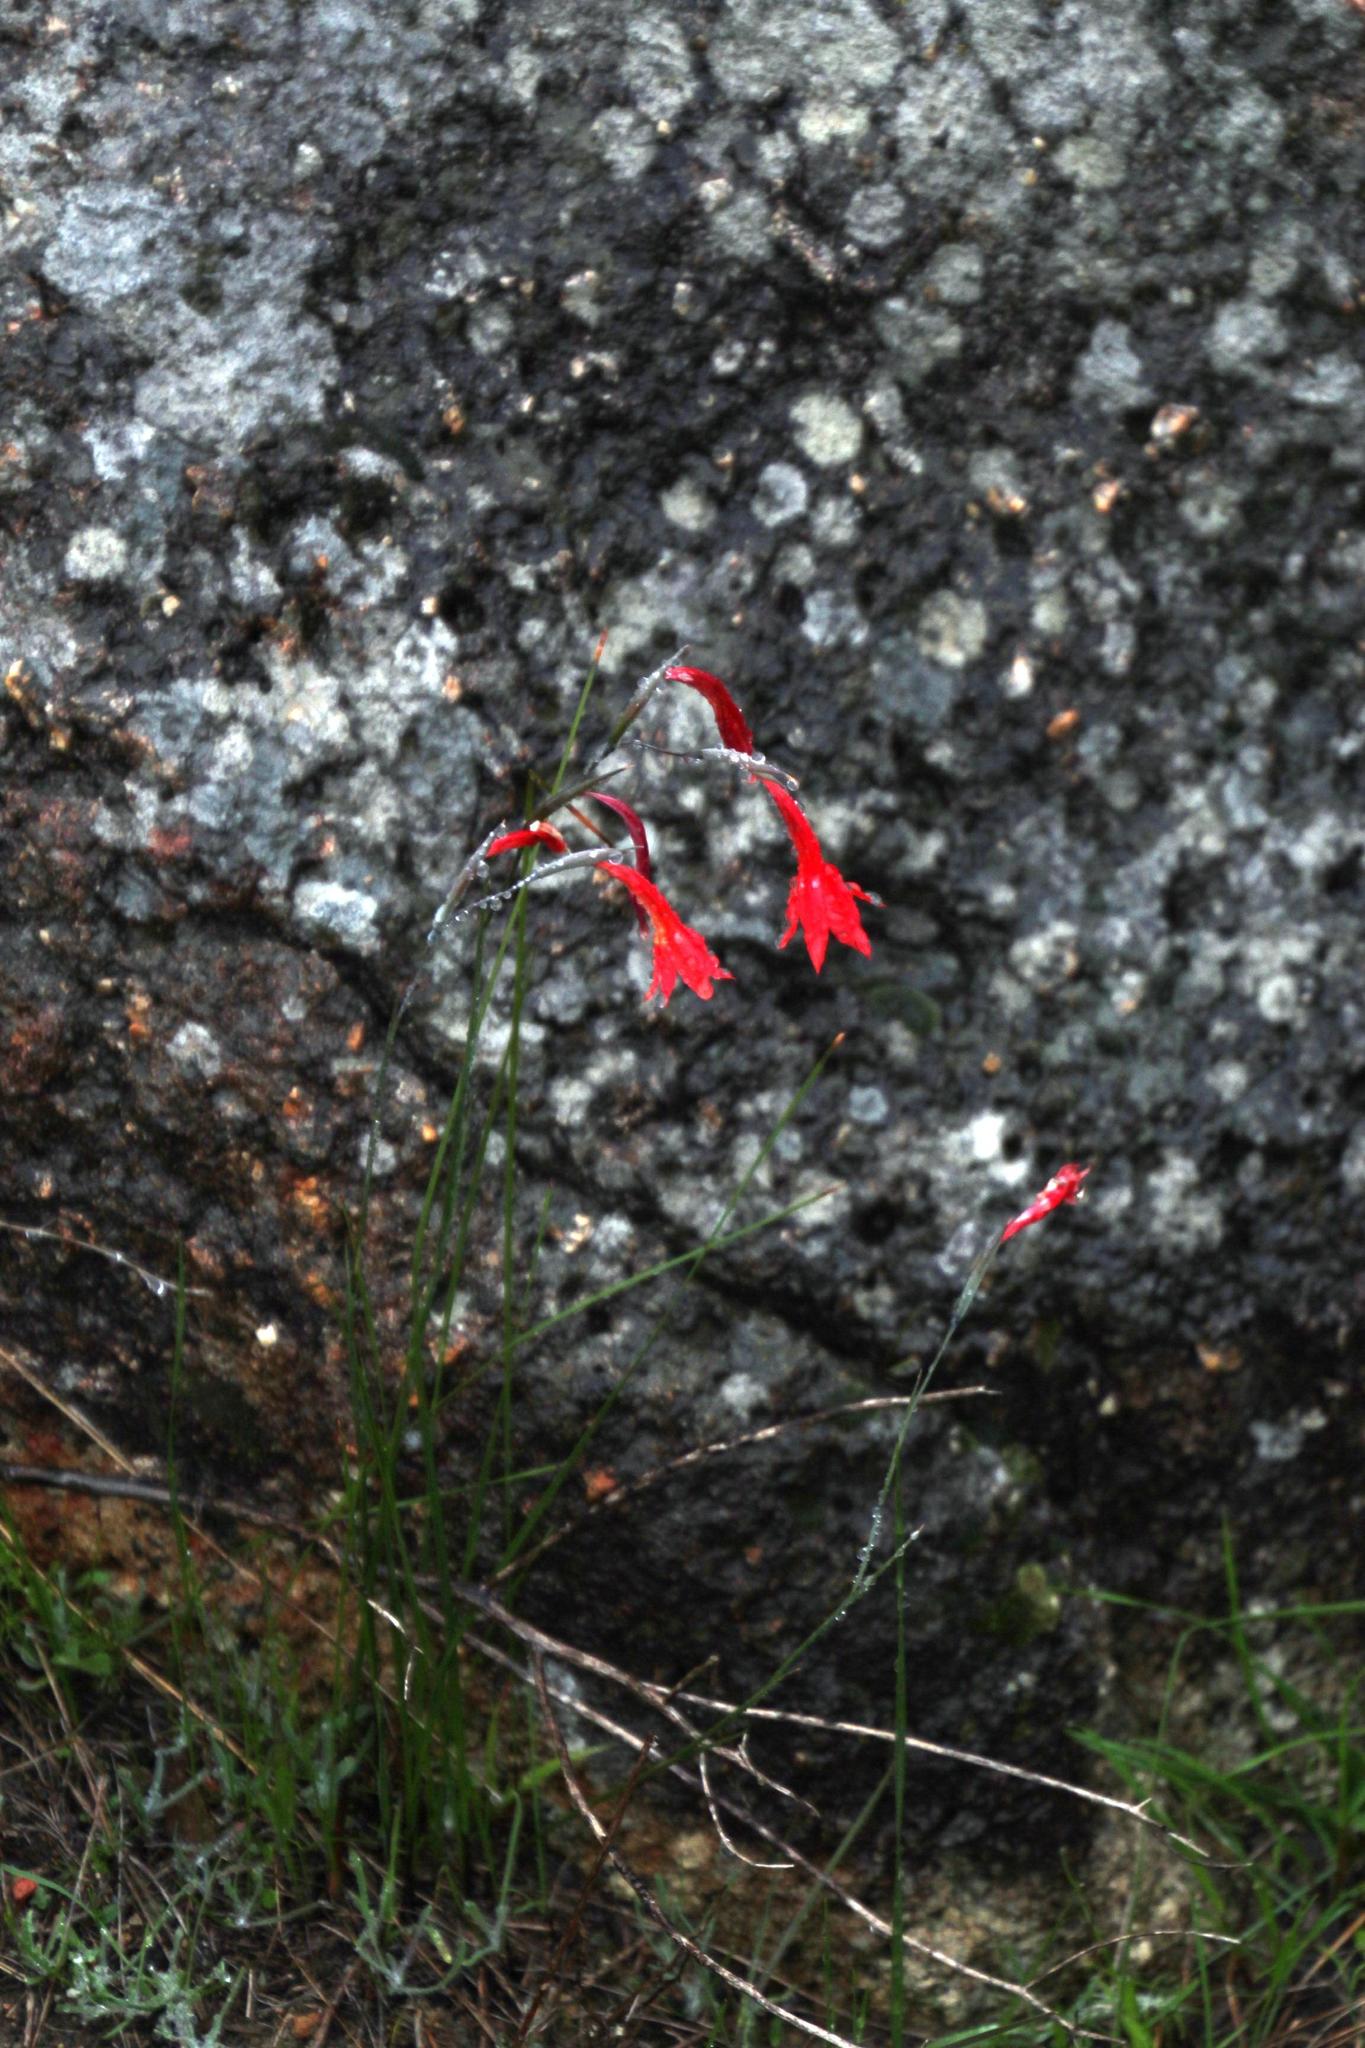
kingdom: Plantae
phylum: Tracheophyta
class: Liliopsida
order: Asparagales
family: Iridaceae
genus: Gladiolus
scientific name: Gladiolus watsonius
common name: Red afrikaner
